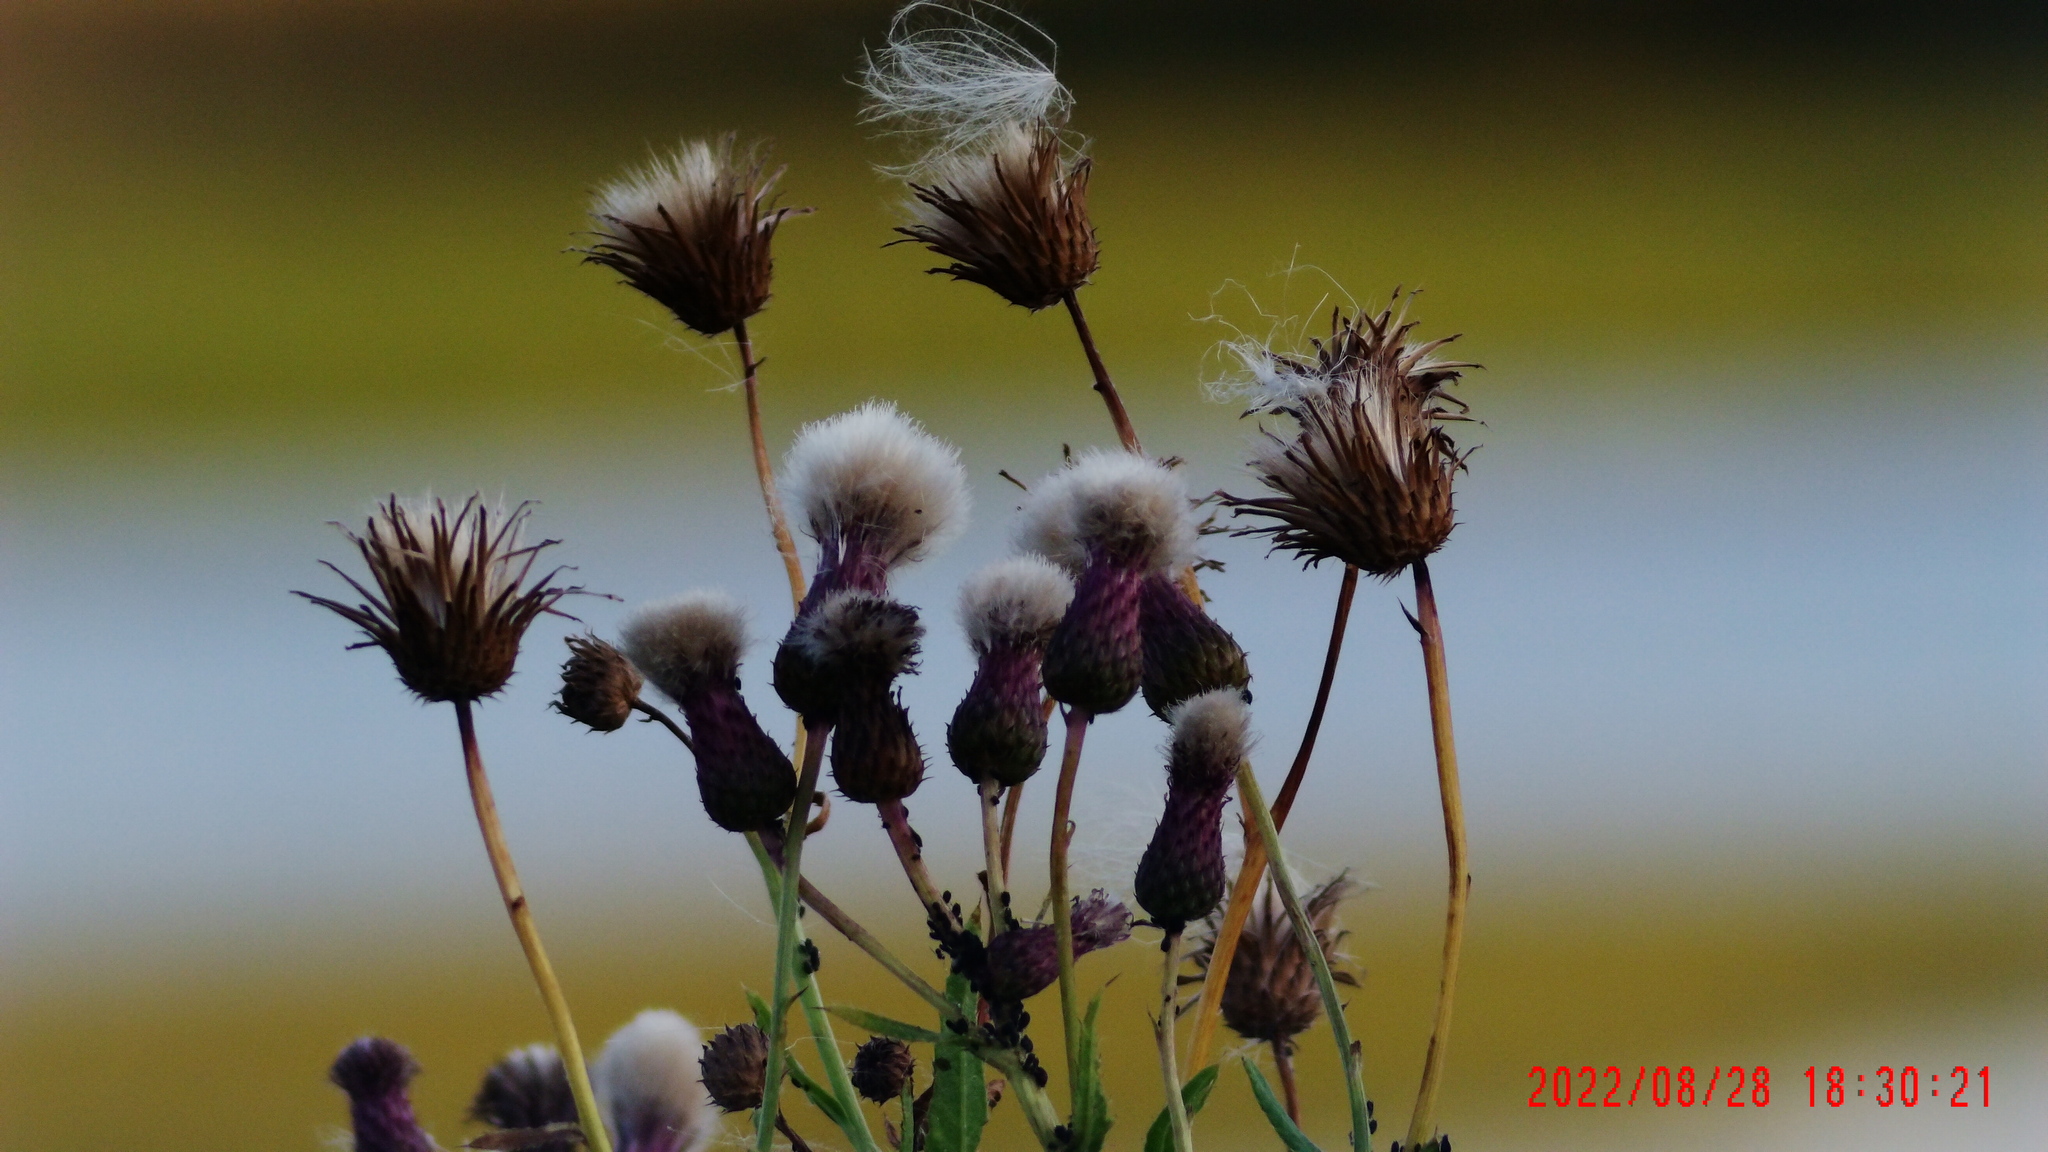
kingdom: Plantae
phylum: Tracheophyta
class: Magnoliopsida
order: Asterales
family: Asteraceae
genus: Cirsium
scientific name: Cirsium arvense
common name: Creeping thistle
